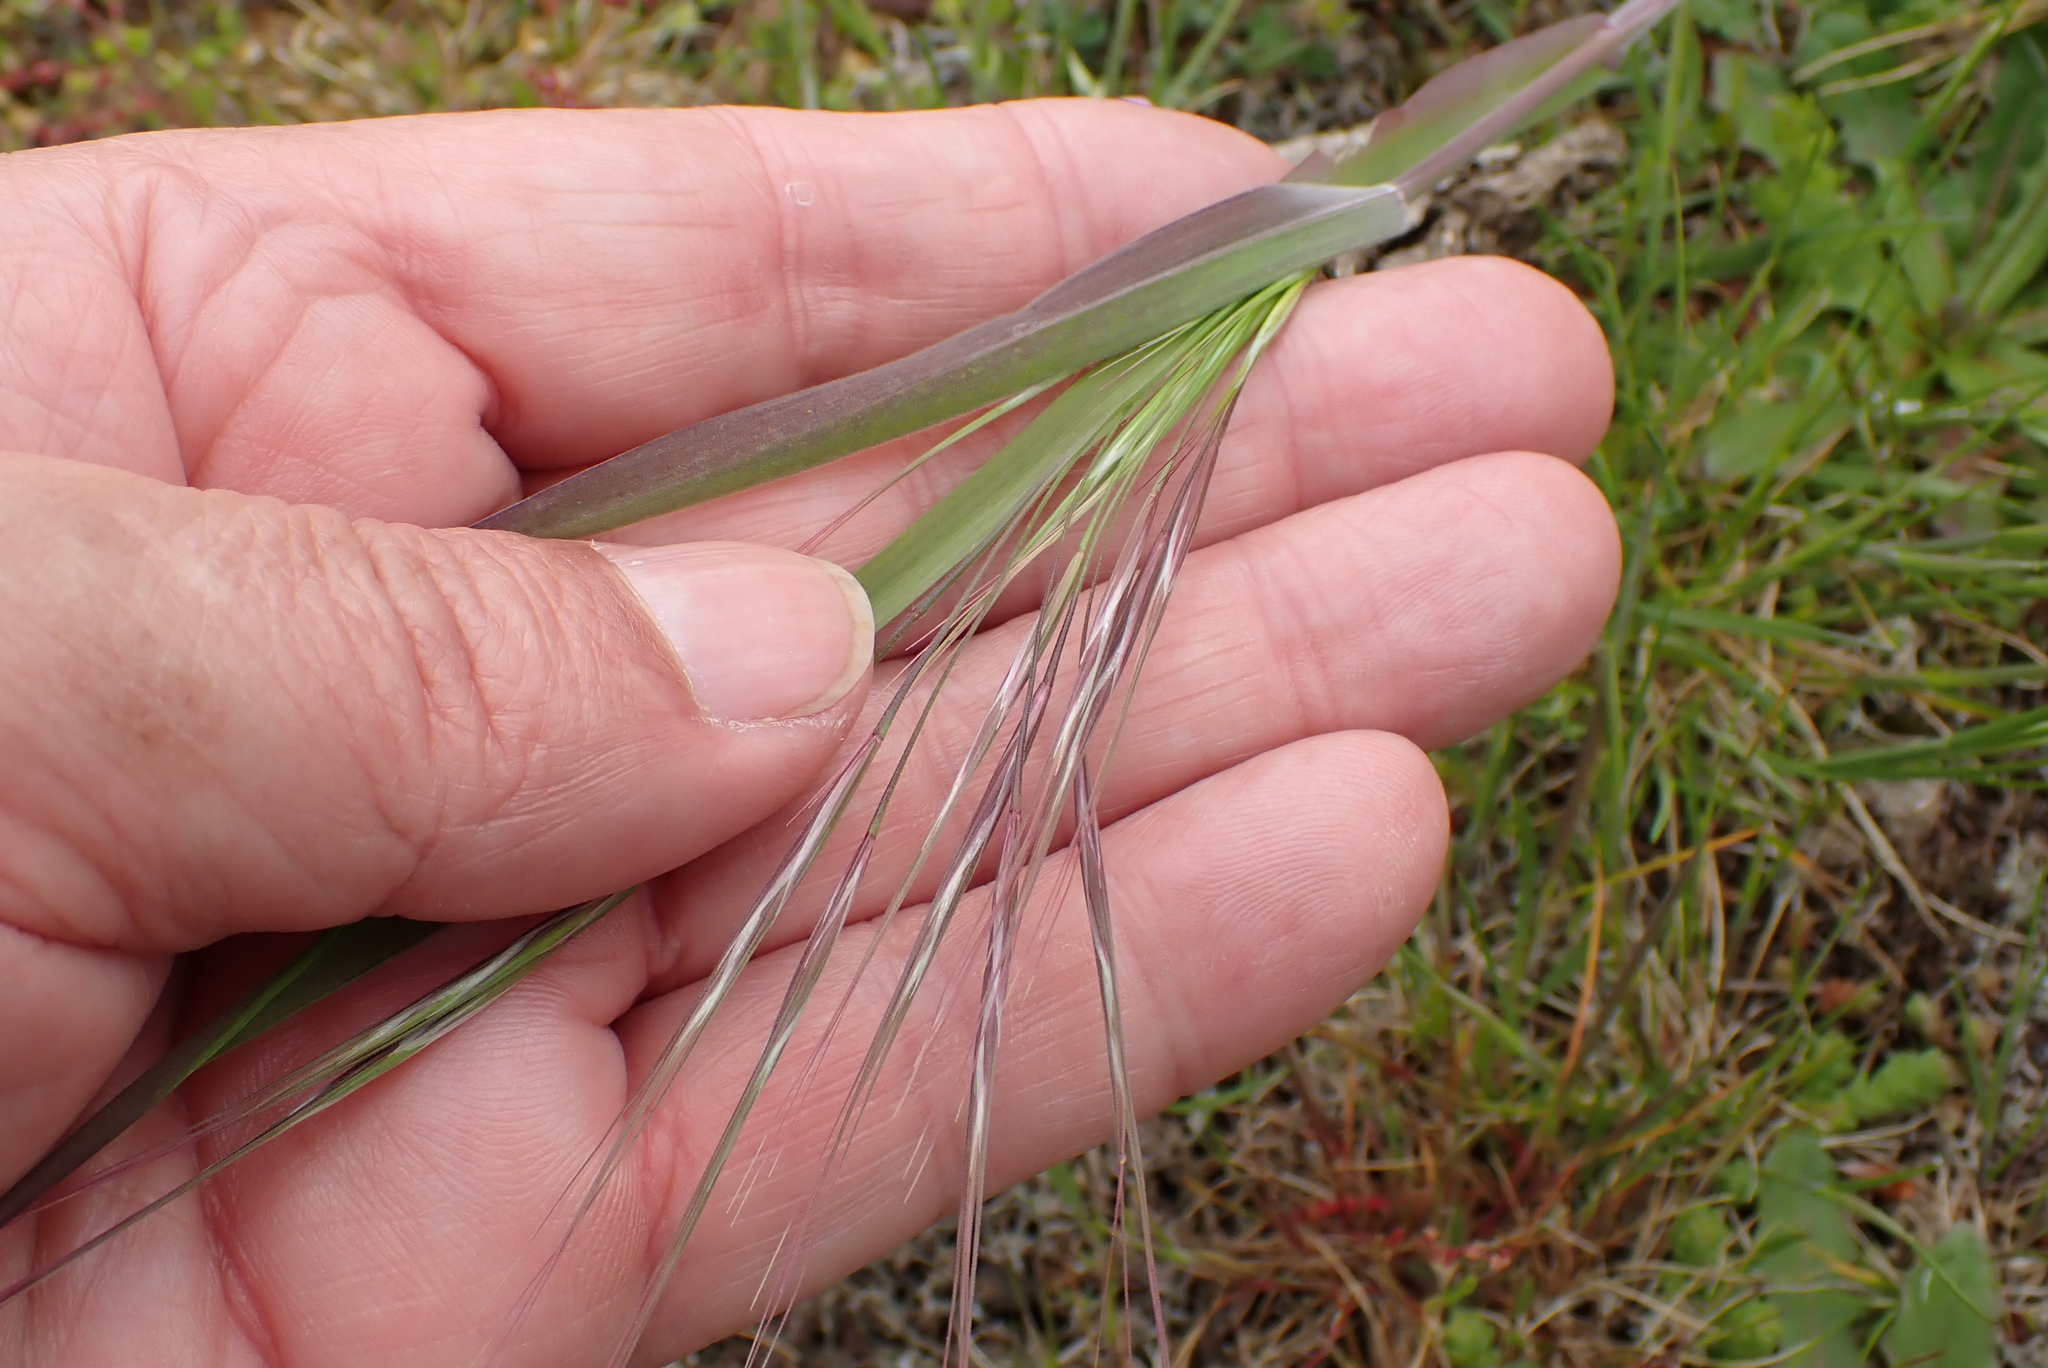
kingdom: Plantae
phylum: Tracheophyta
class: Liliopsida
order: Poales
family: Poaceae
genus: Bromus
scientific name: Bromus sterilis
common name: Poverty brome
